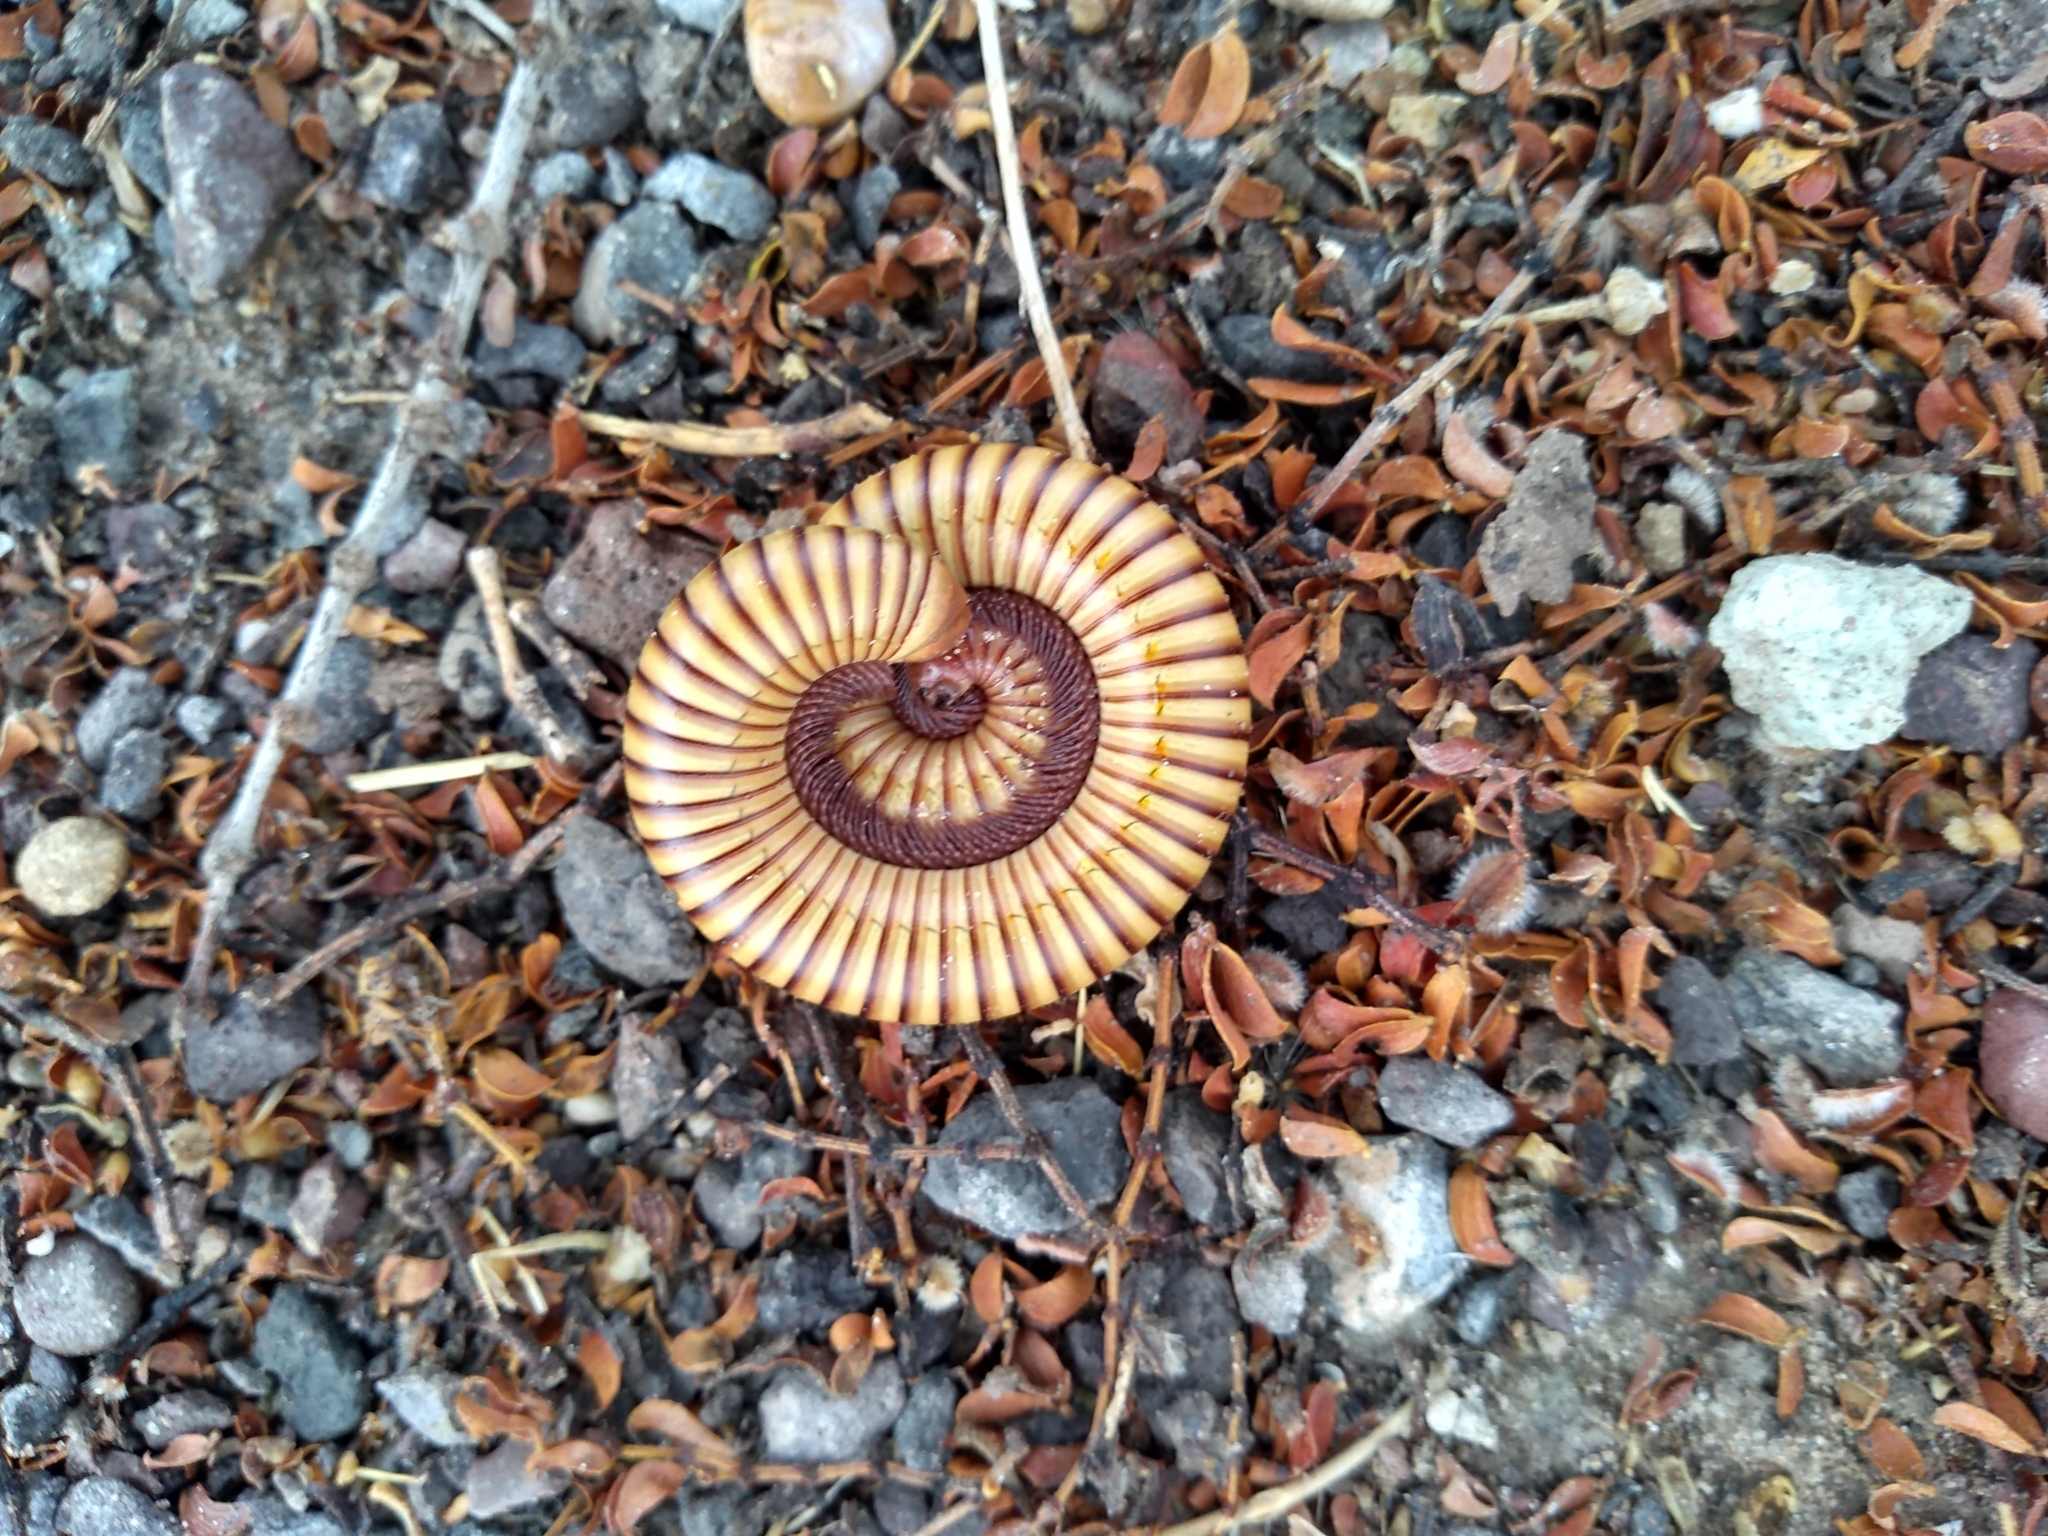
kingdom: Animalia
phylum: Arthropoda
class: Diplopoda
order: Spirostreptida
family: Spirostreptidae
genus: Orthoporus
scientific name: Orthoporus ornatus
